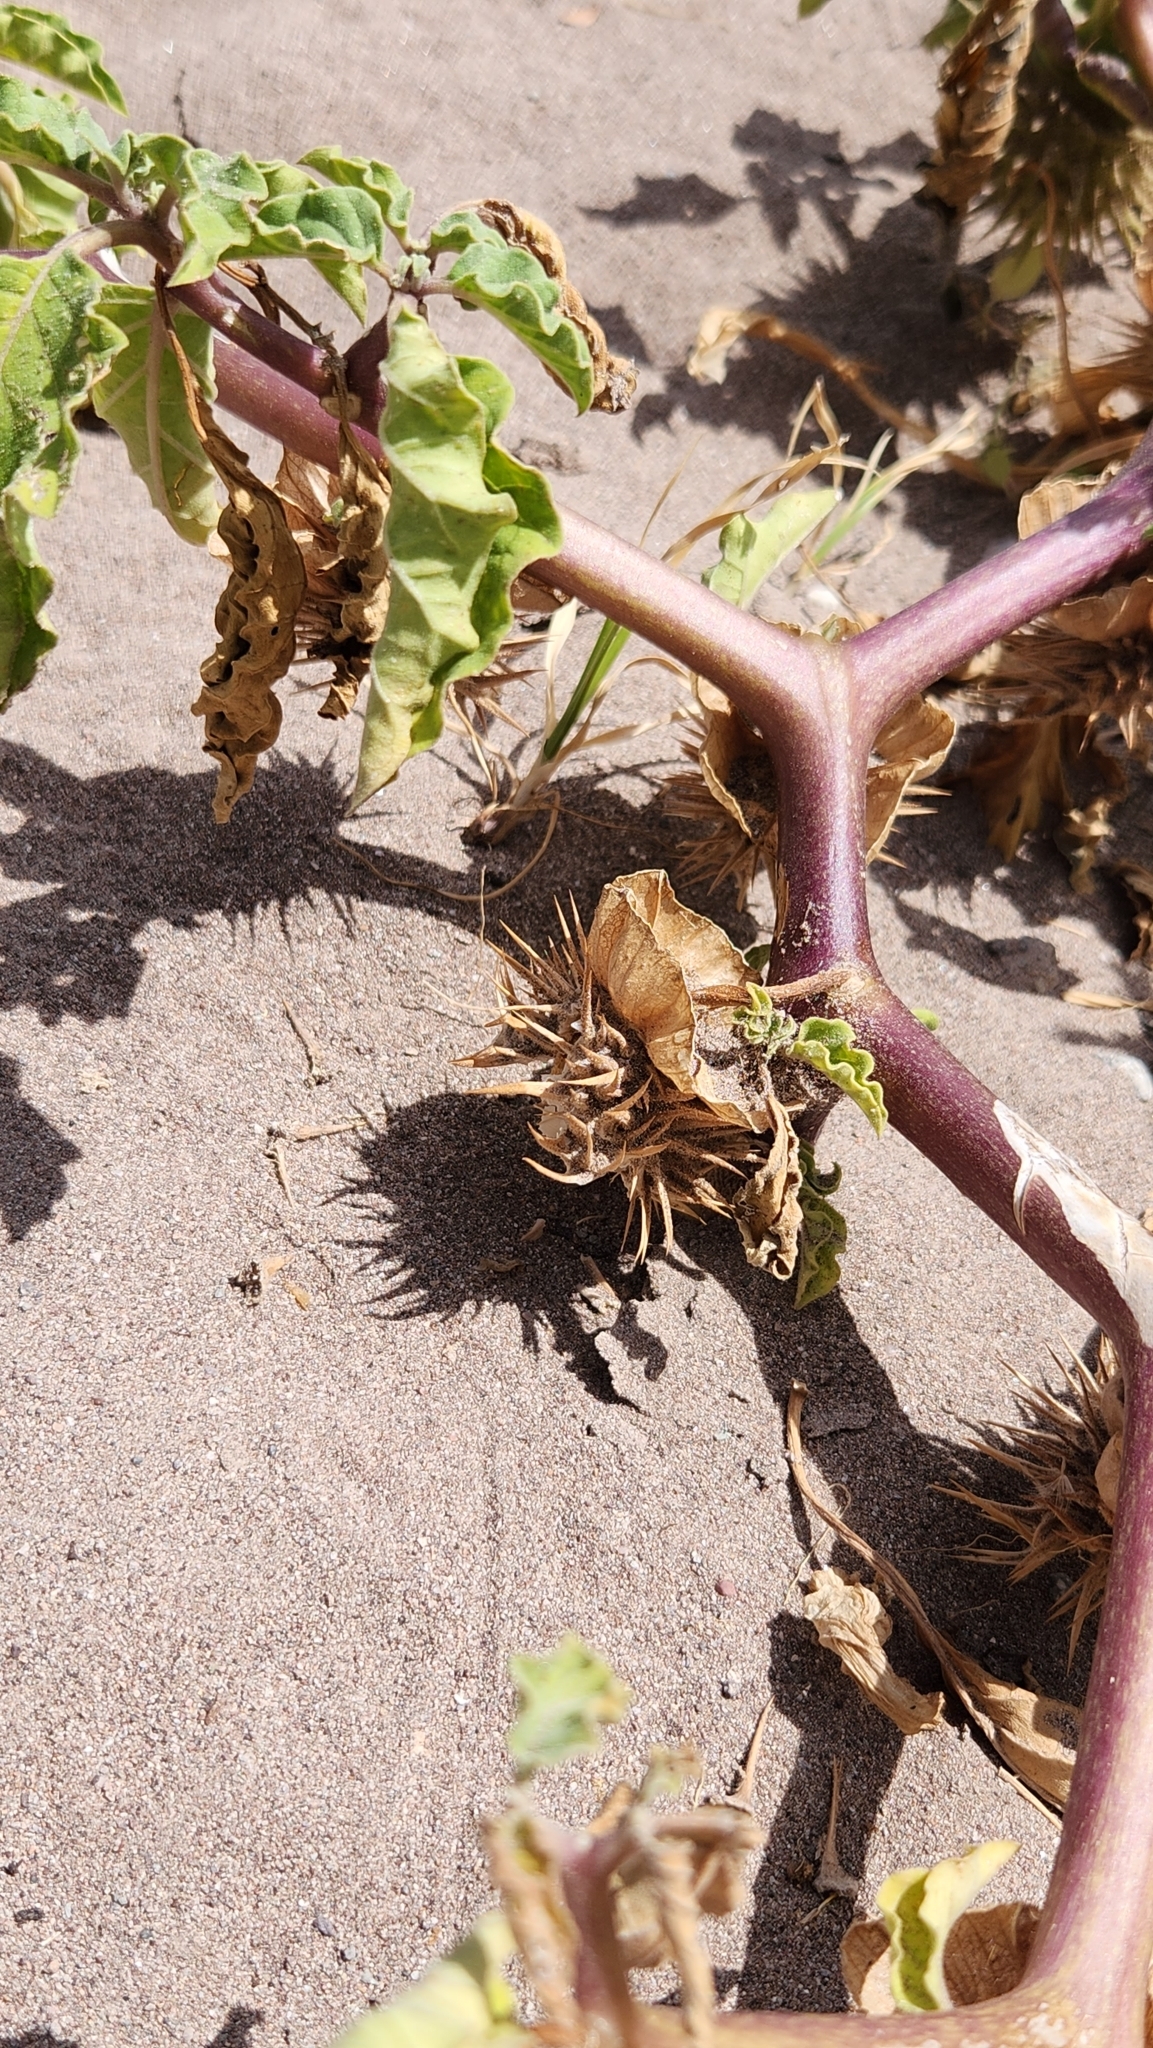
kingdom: Plantae
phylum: Tracheophyta
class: Magnoliopsida
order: Solanales
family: Solanaceae
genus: Datura
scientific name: Datura discolor
